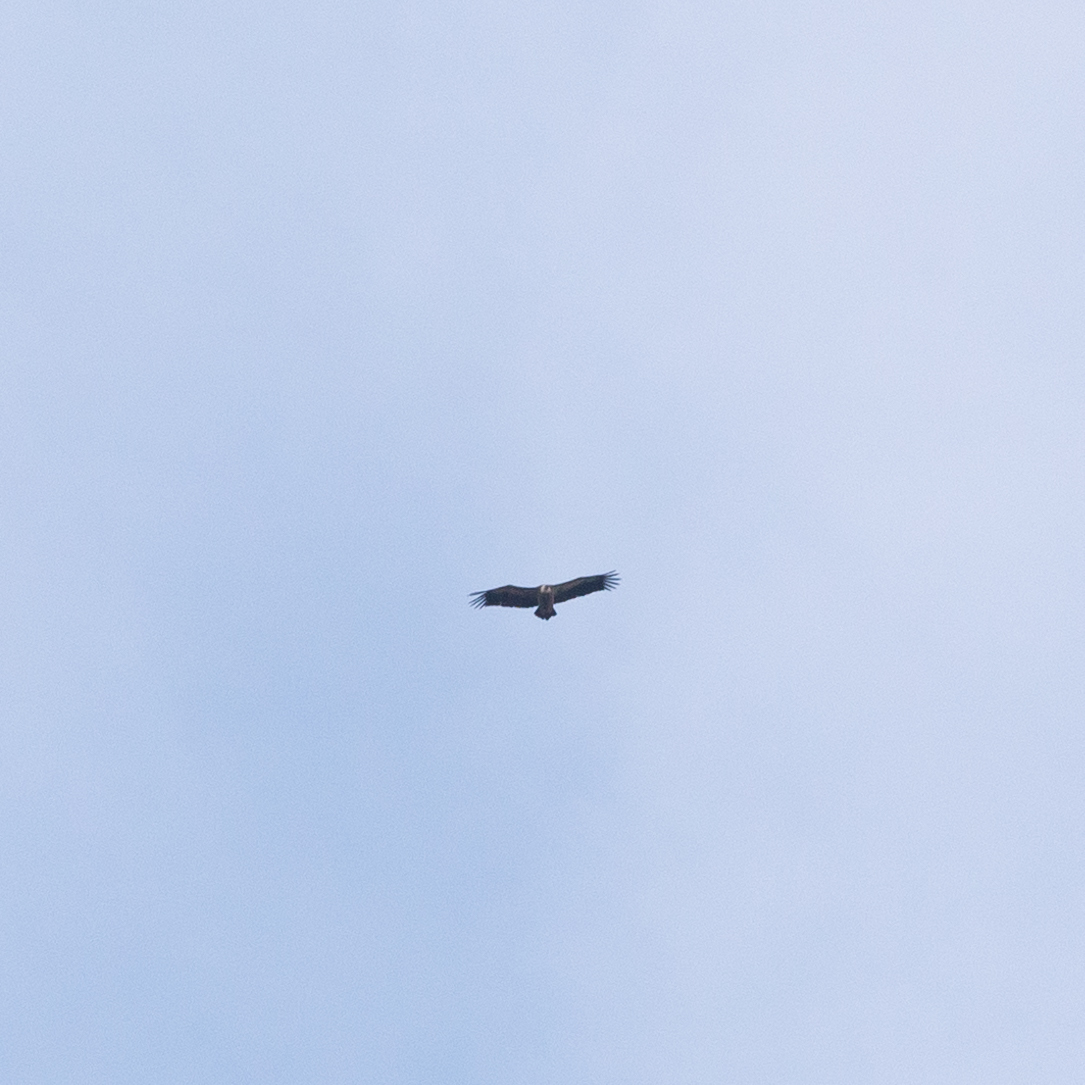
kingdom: Animalia
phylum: Chordata
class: Aves
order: Accipitriformes
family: Accipitridae
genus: Gyps
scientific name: Gyps fulvus
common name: Griffon vulture
